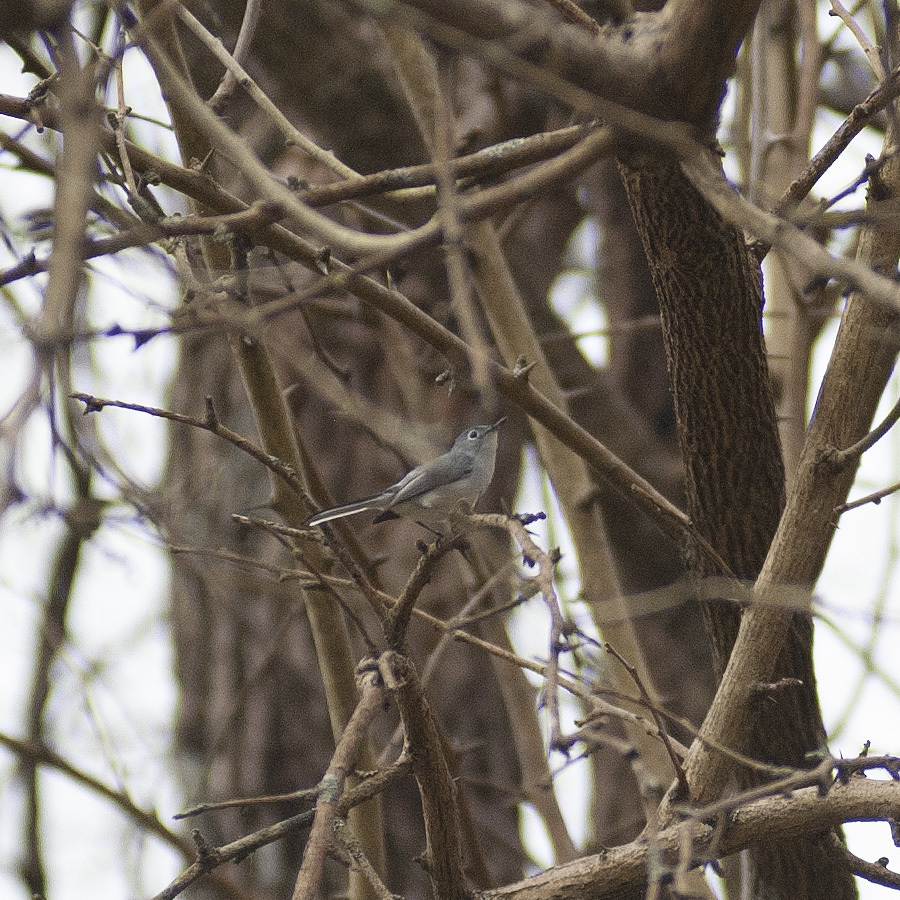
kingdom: Animalia
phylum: Chordata
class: Aves
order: Passeriformes
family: Polioptilidae
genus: Polioptila
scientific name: Polioptila caerulea
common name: Blue-gray gnatcatcher
